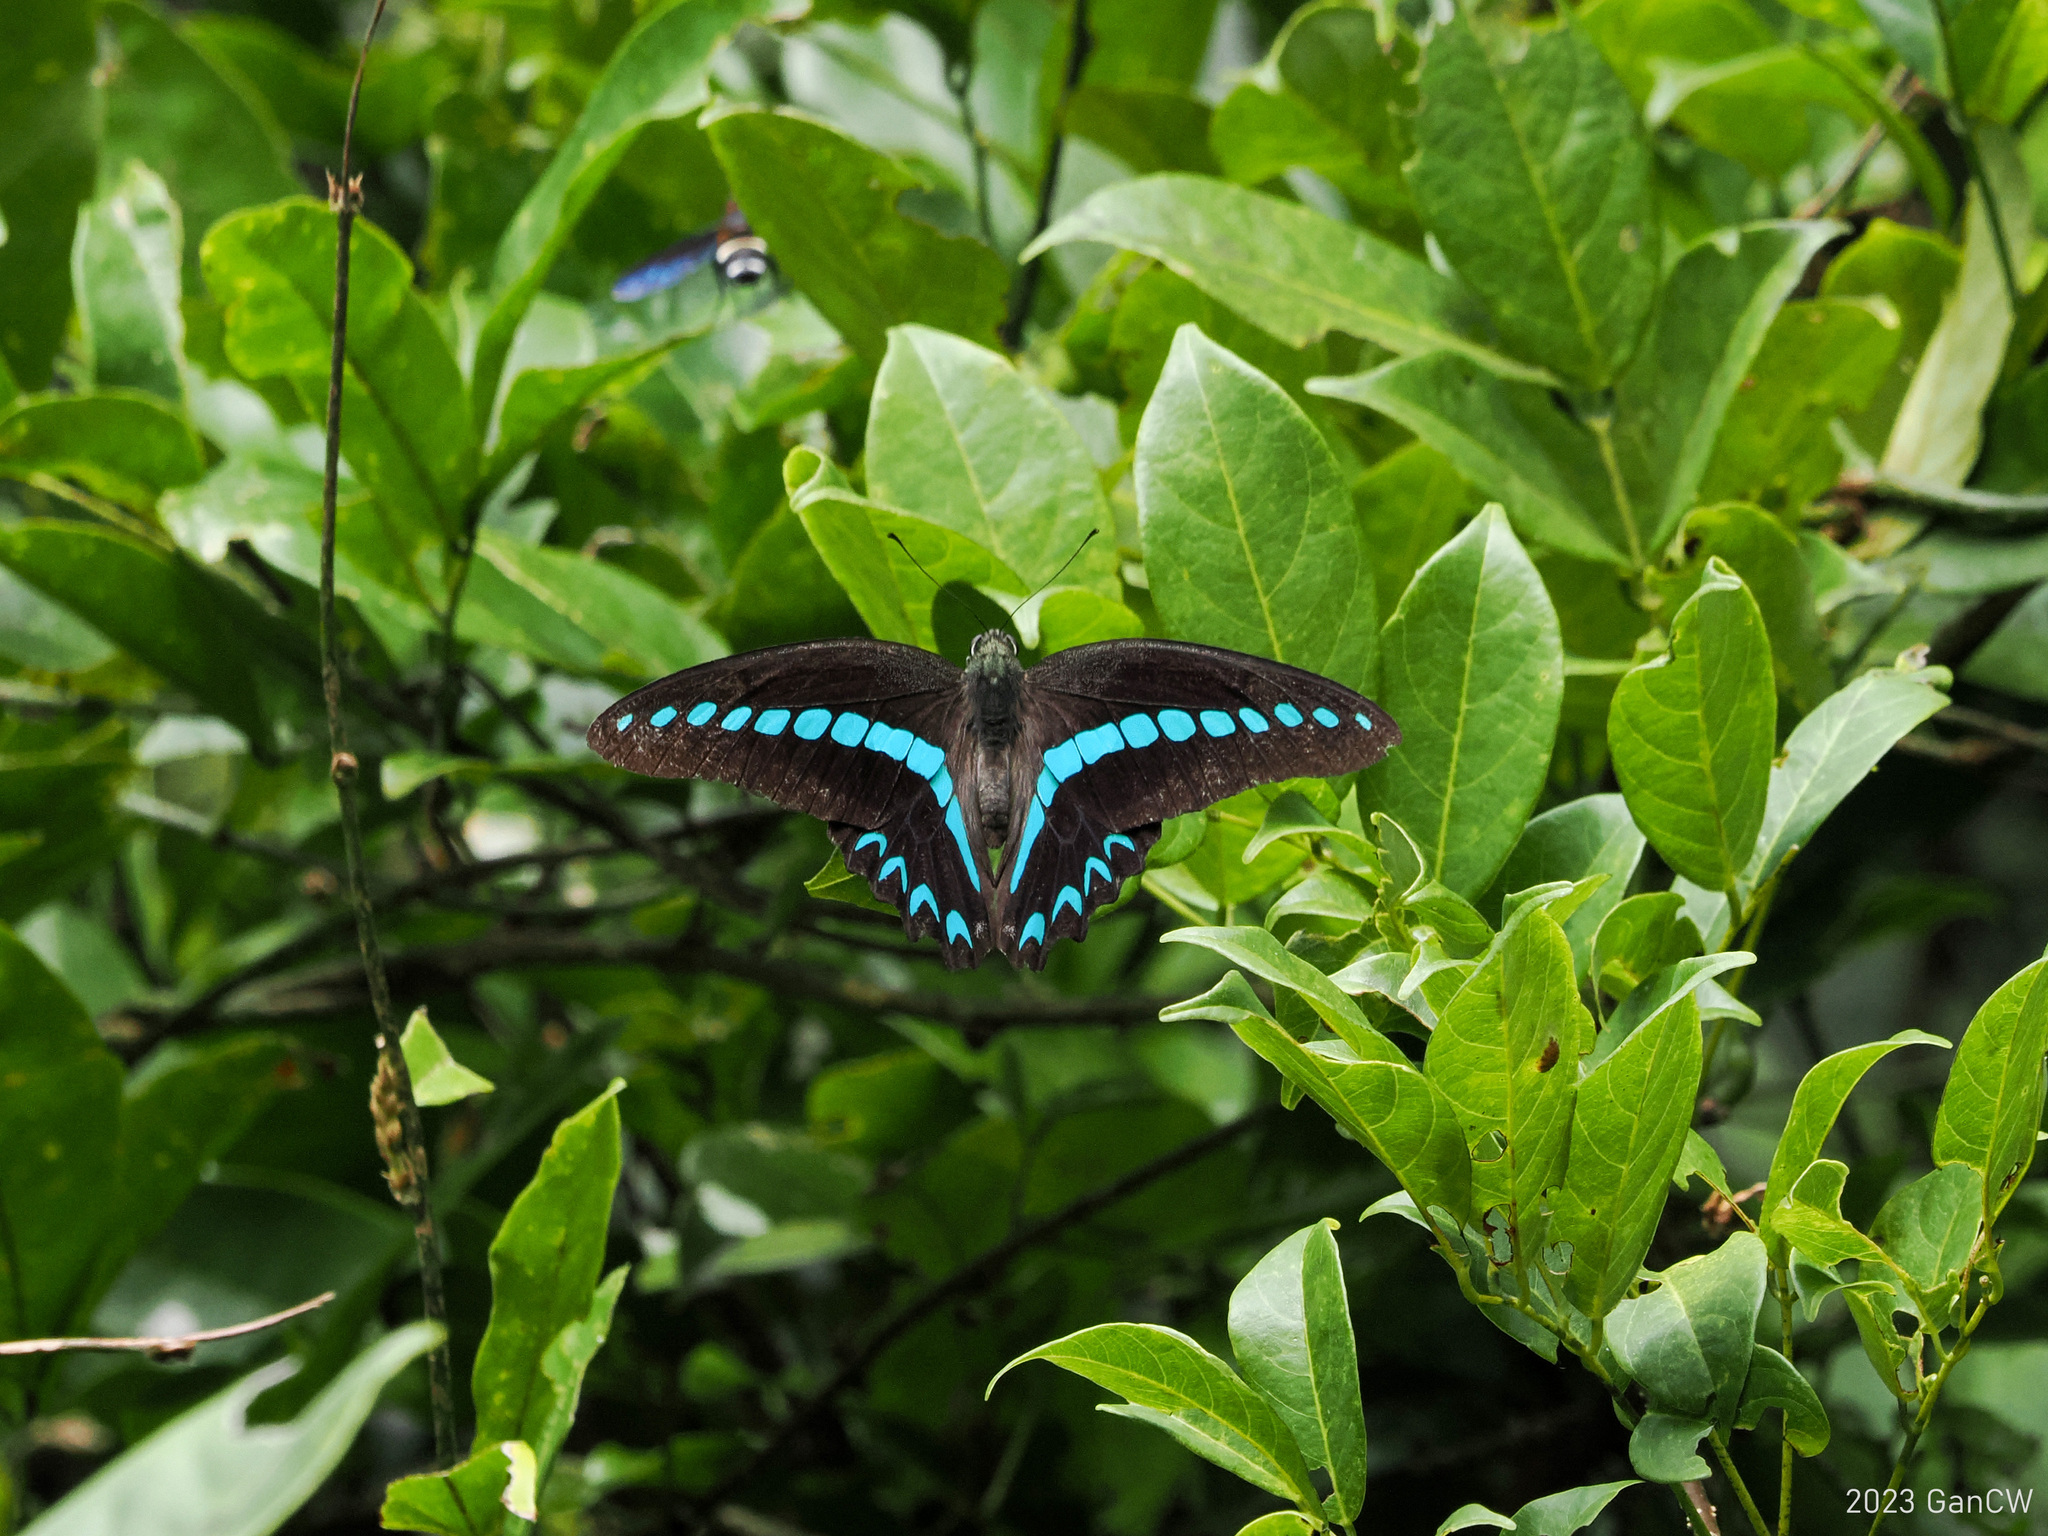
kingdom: Animalia
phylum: Arthropoda
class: Insecta
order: Lepidoptera
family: Papilionidae
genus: Graphium
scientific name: Graphium milon
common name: Milon's swallowtail
